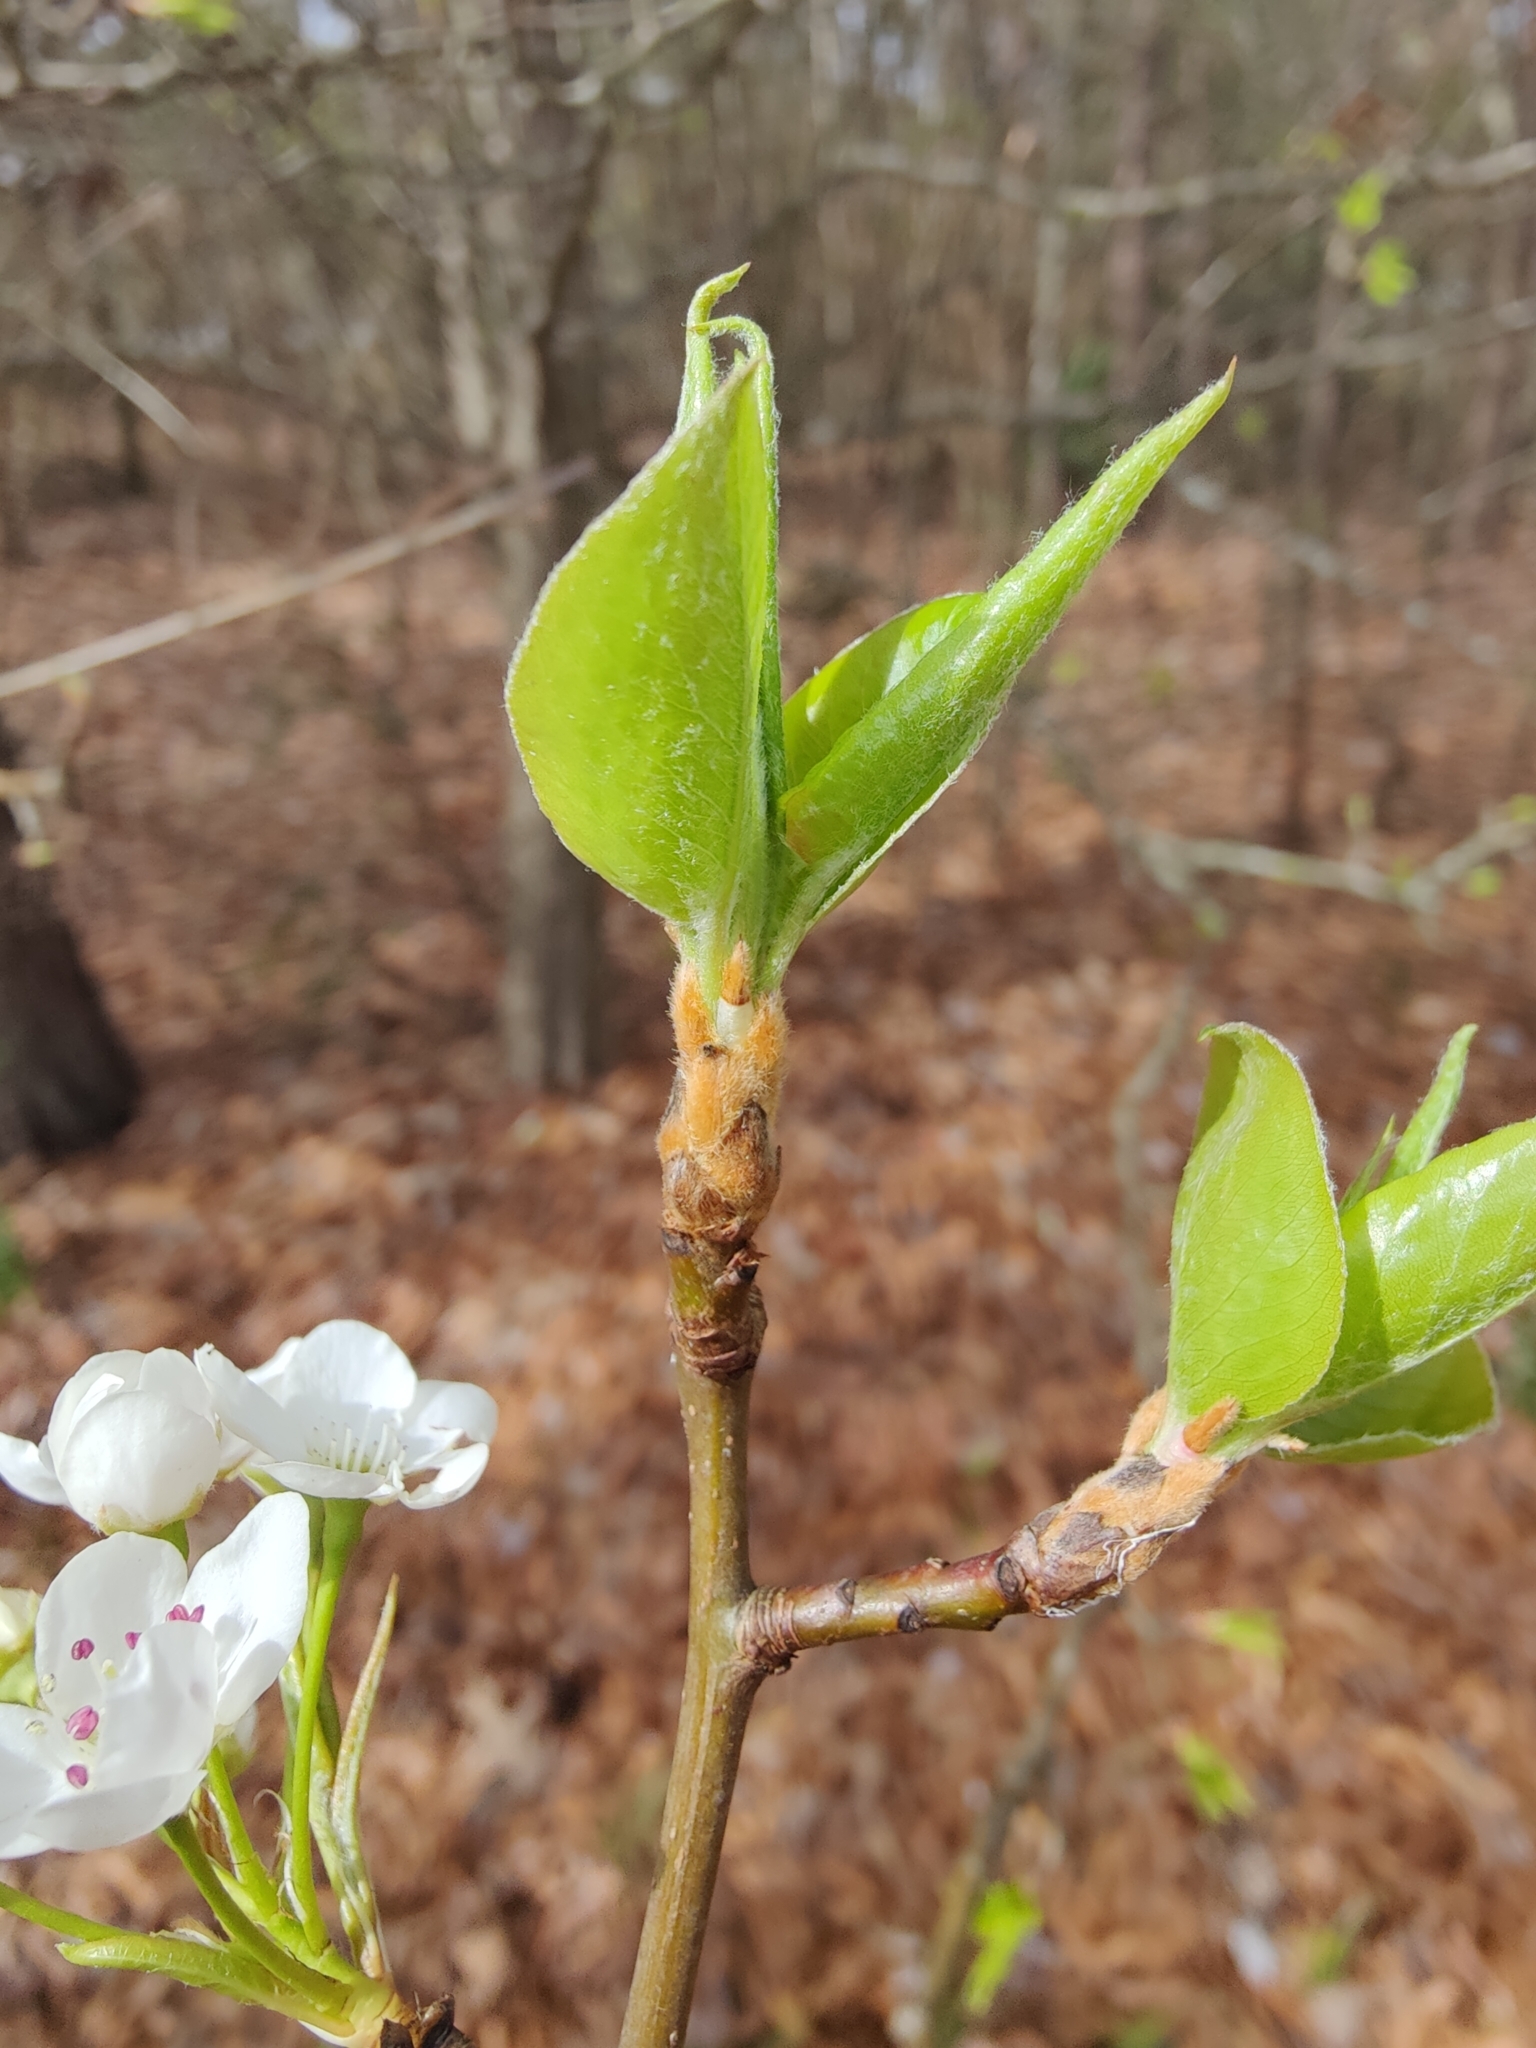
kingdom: Plantae
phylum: Tracheophyta
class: Magnoliopsida
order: Rosales
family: Rosaceae
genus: Pyrus
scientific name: Pyrus calleryana
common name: Callery pear
